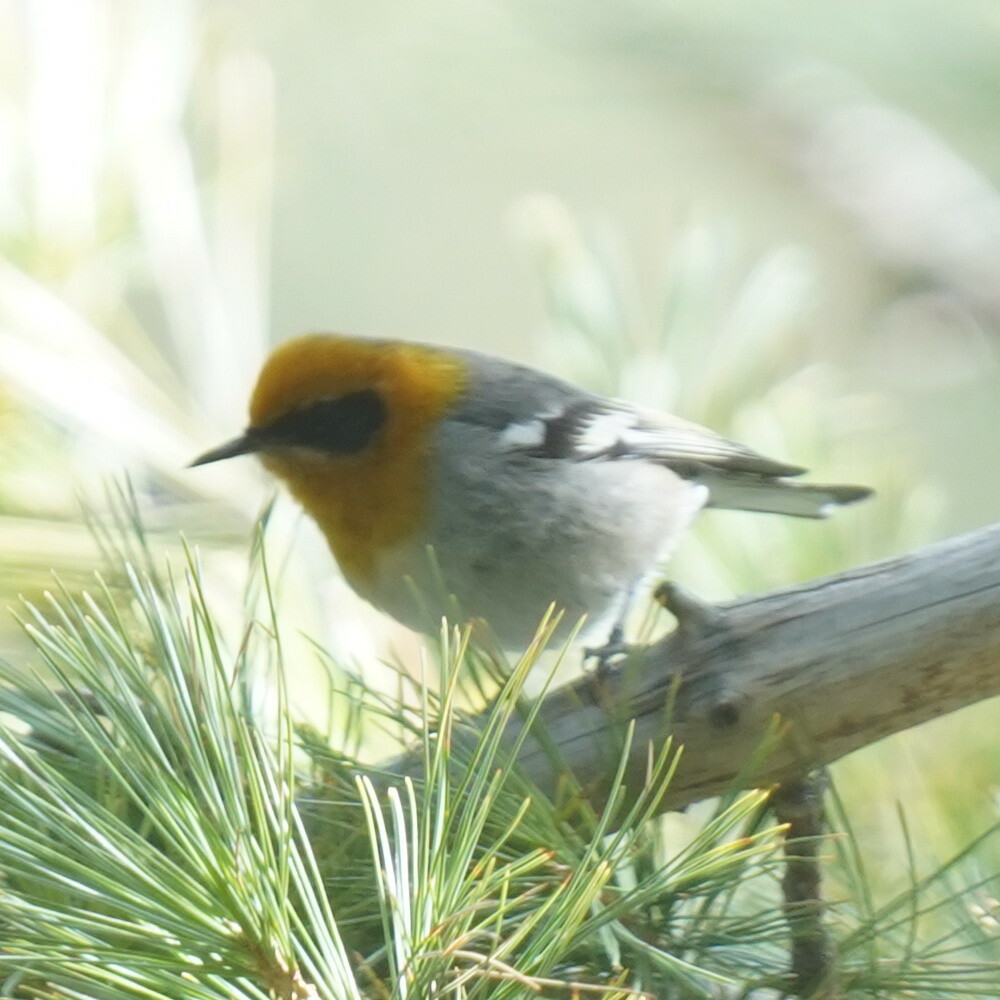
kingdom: Animalia
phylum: Chordata
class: Aves
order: Passeriformes
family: Peucedramidae
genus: Peucedramus
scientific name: Peucedramus taeniatus
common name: Olive warbler
